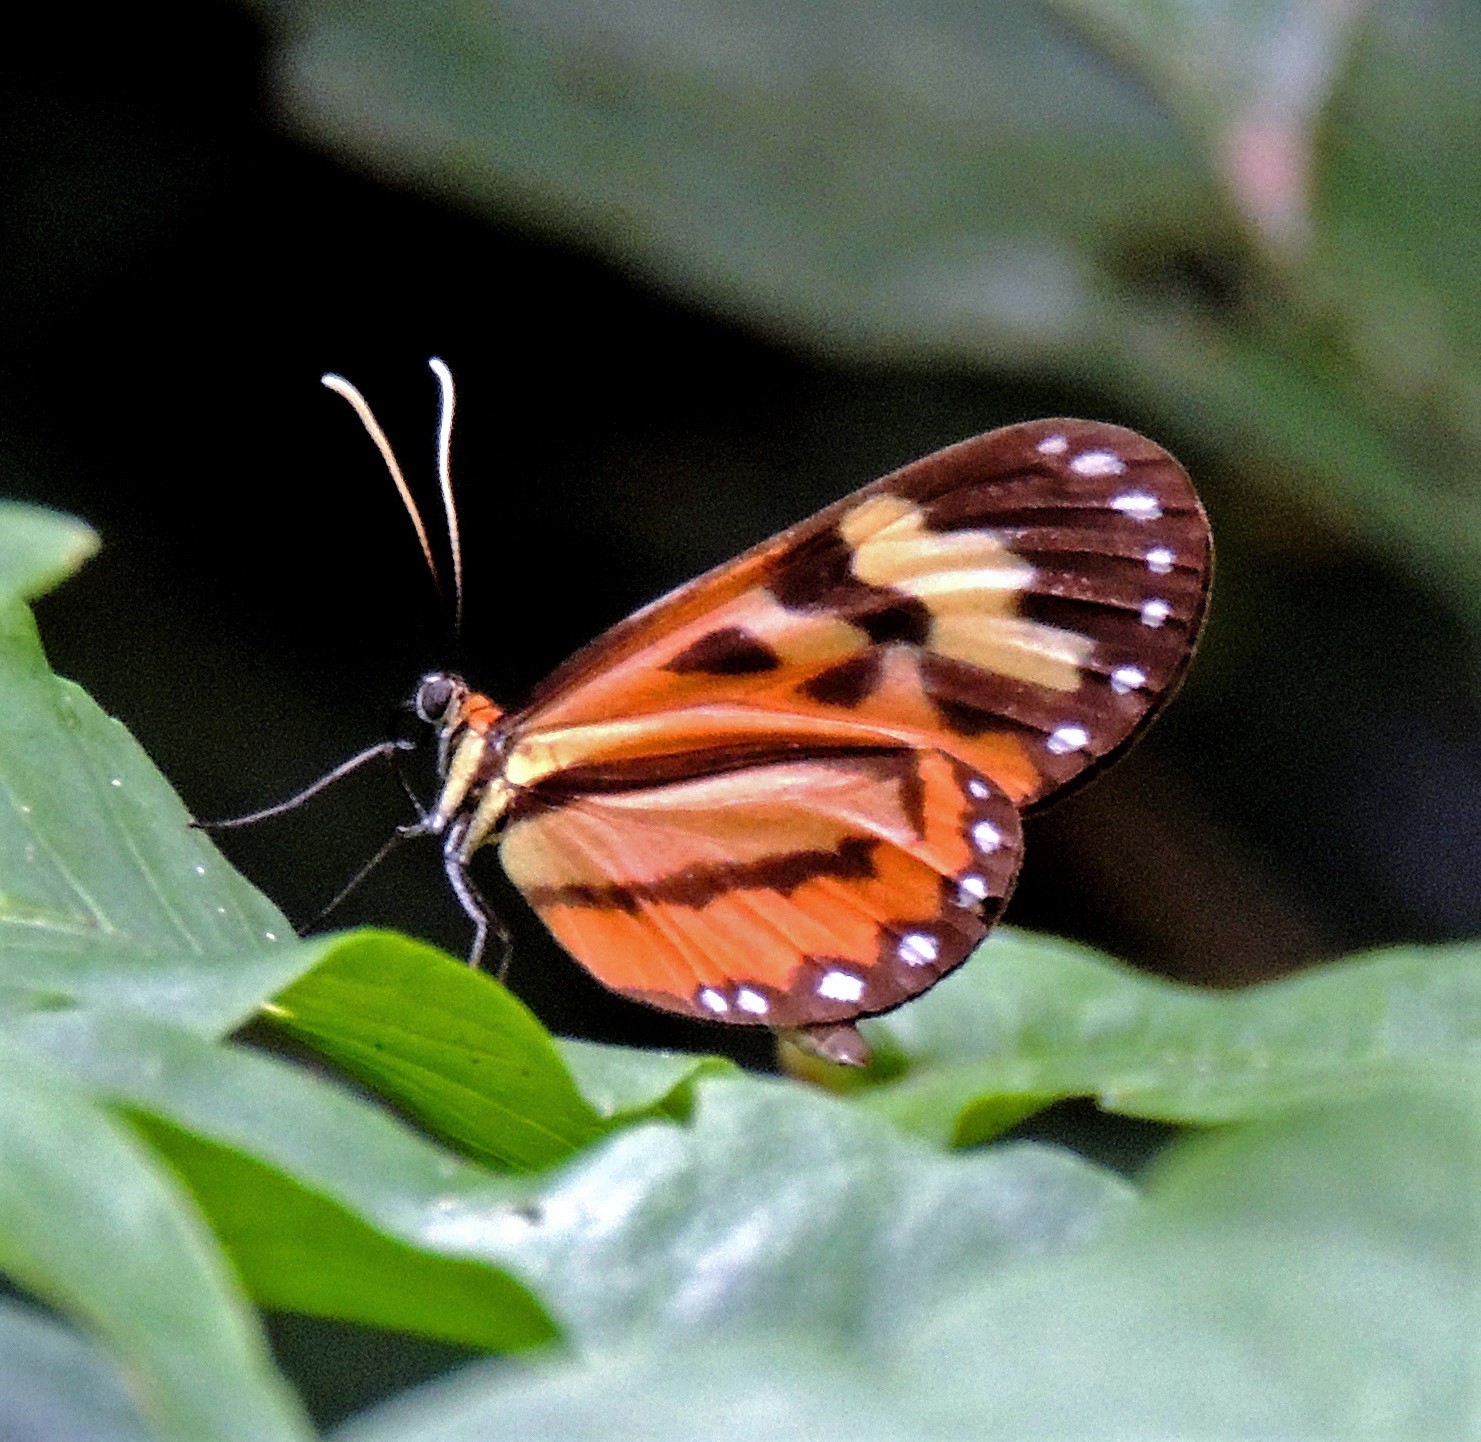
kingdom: Animalia
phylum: Arthropoda
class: Insecta
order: Lepidoptera
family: Nymphalidae
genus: Hypothyris
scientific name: Hypothyris euclea
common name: Euclea tigerwing
